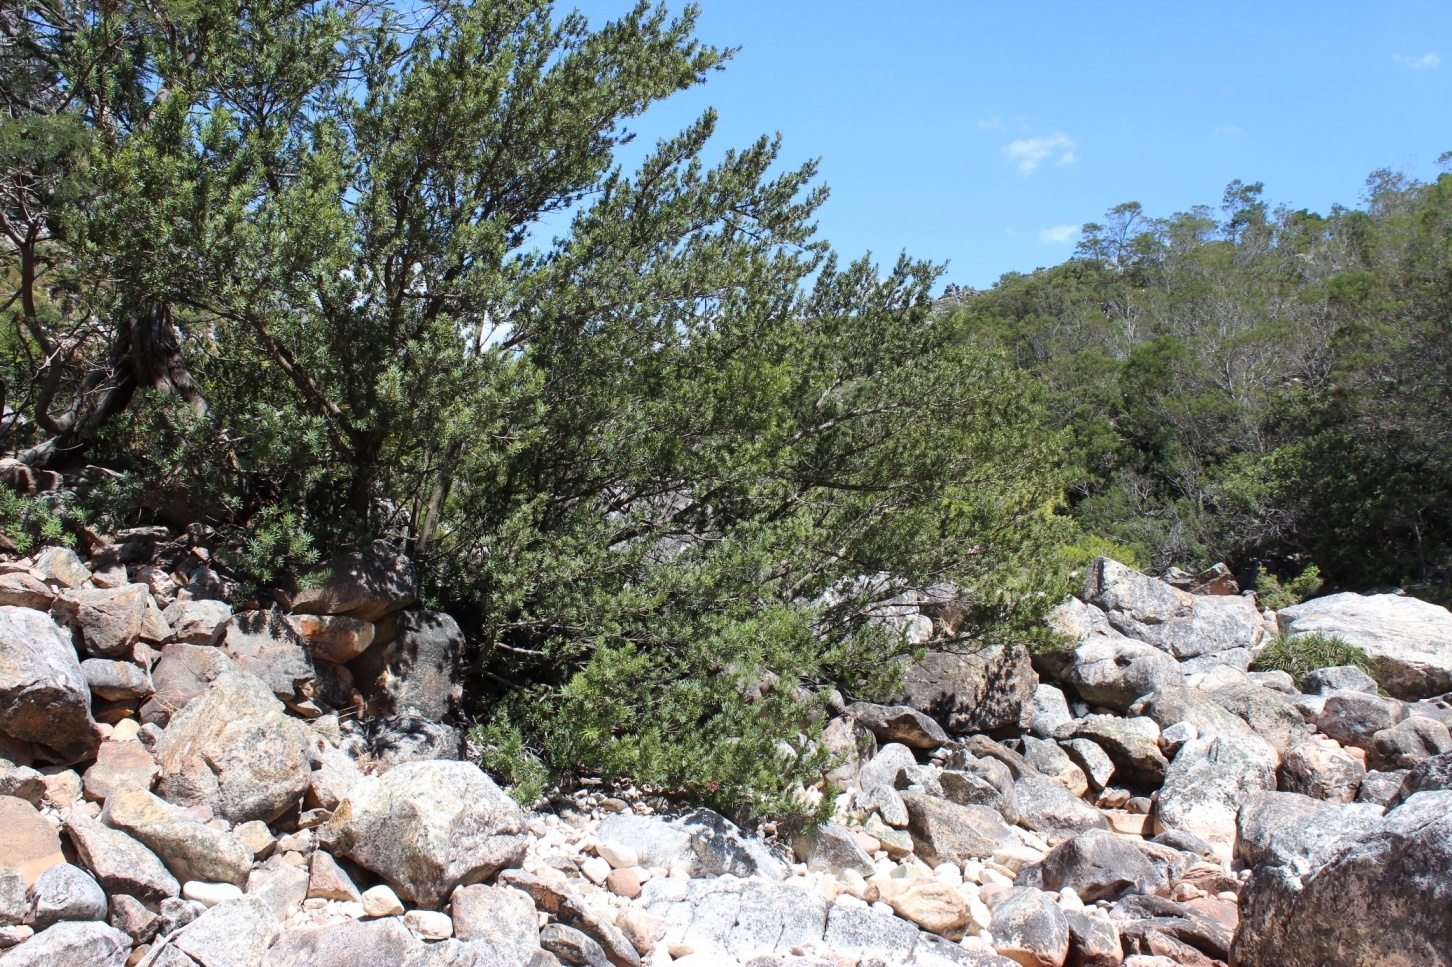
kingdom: Plantae
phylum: Tracheophyta
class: Pinopsida
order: Pinales
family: Podocarpaceae
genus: Podocarpus
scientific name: Podocarpus elongatus
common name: Breede river yellowwood
